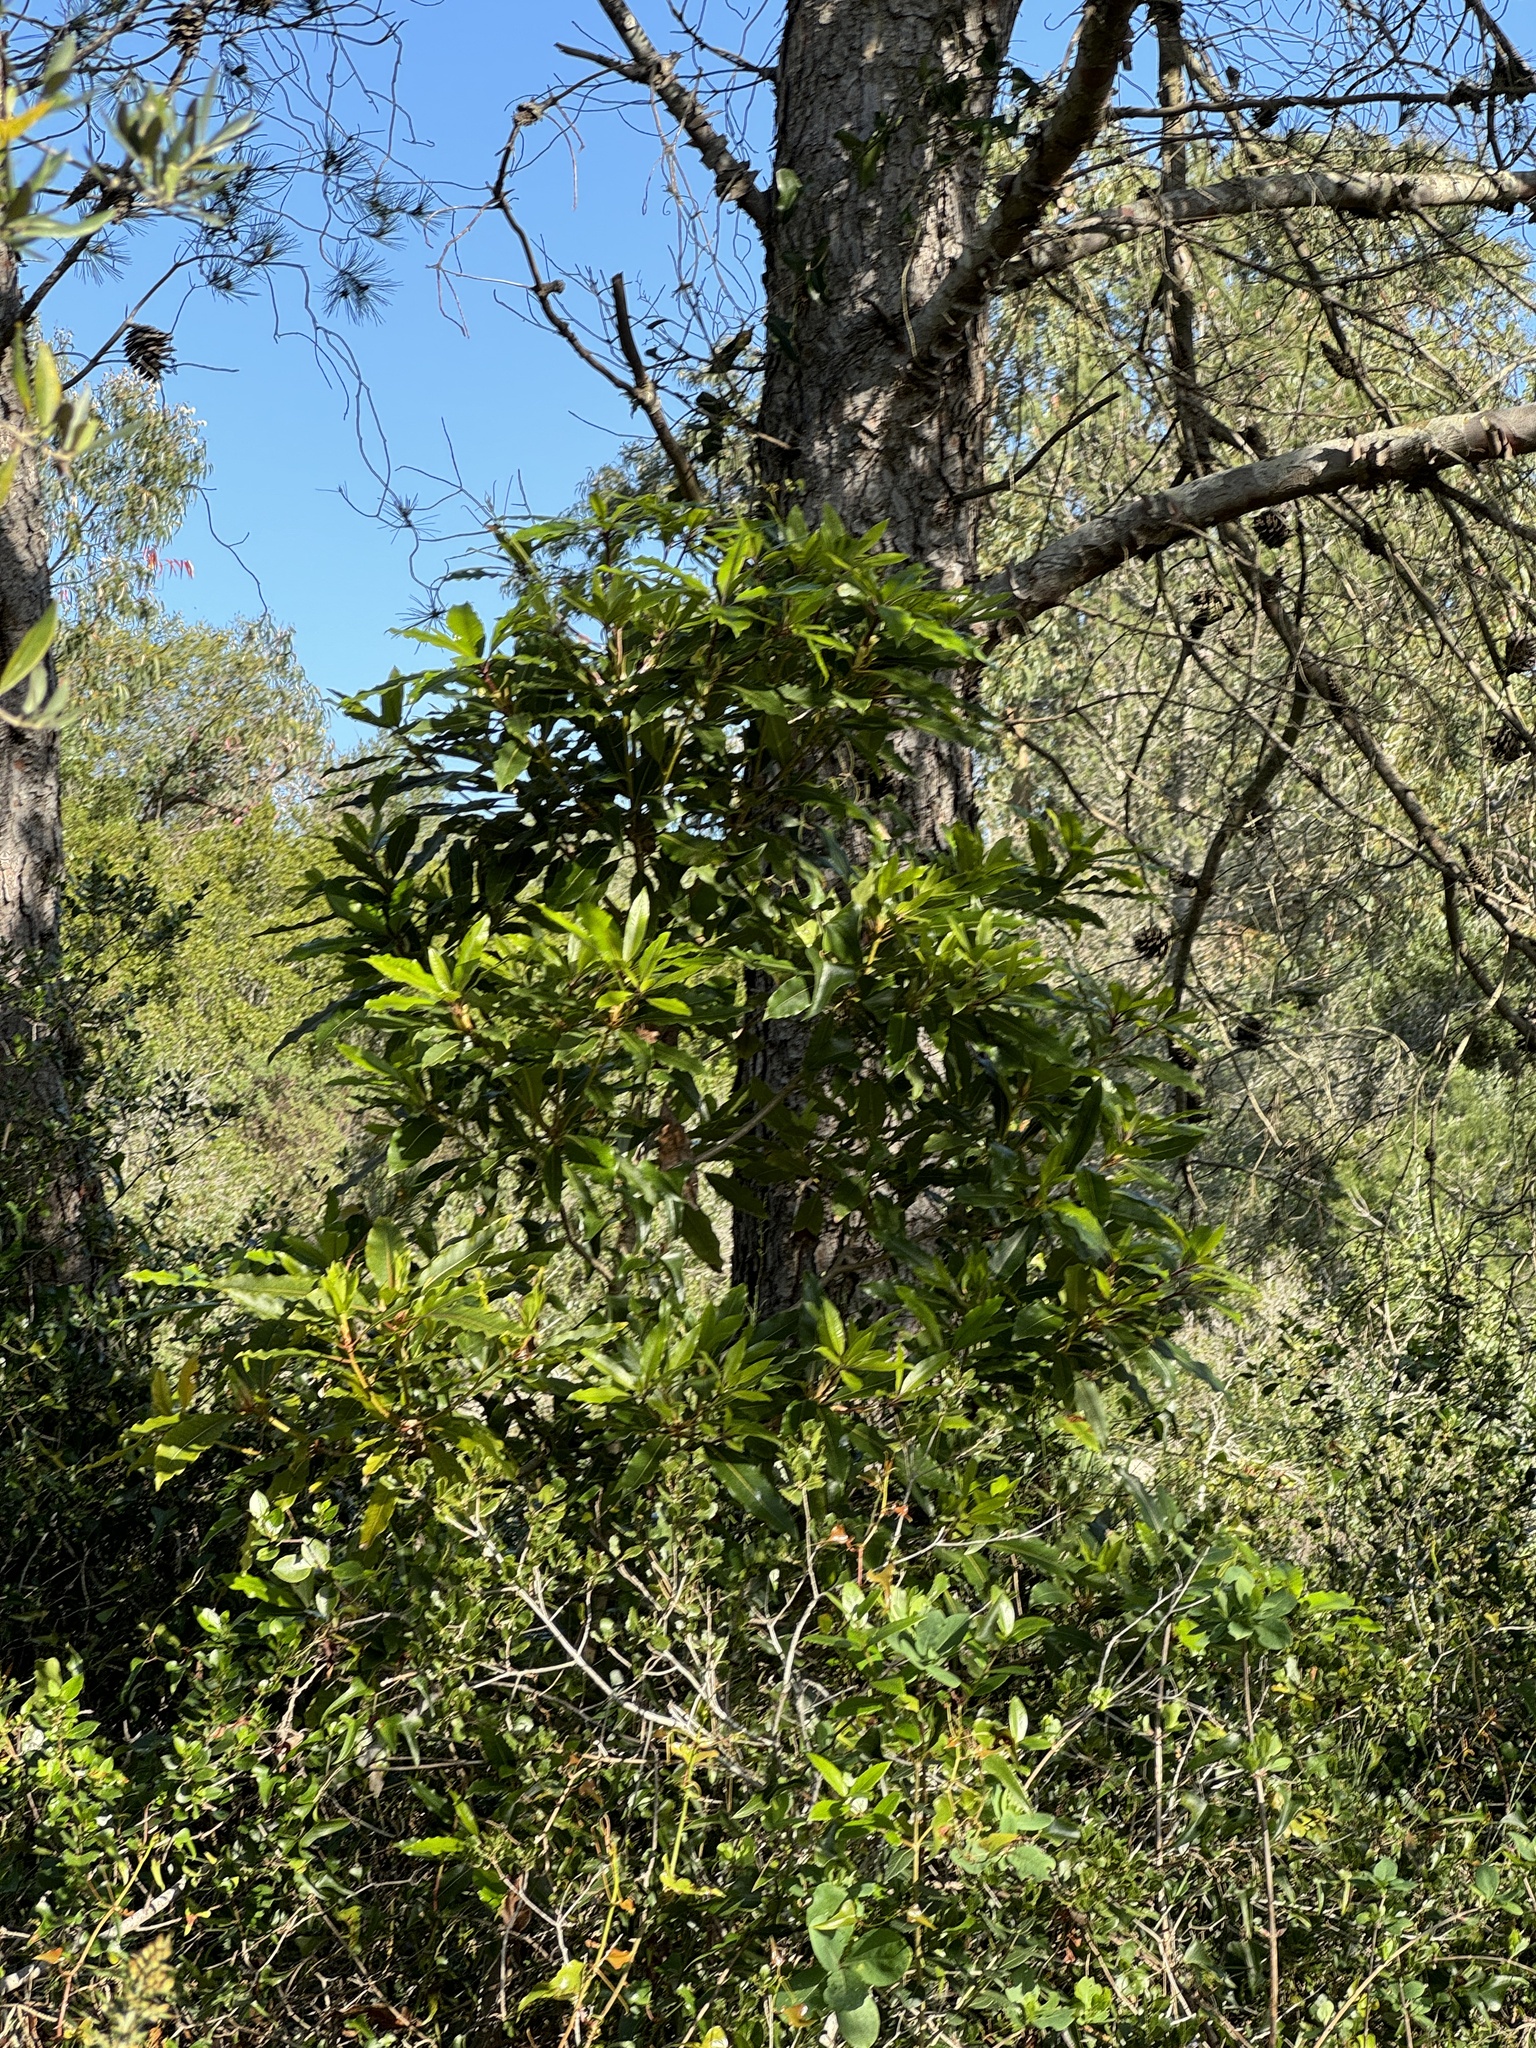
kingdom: Plantae
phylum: Tracheophyta
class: Magnoliopsida
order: Apiales
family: Pittosporaceae
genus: Pittosporum
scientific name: Pittosporum undulatum
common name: Australian cheesewood
